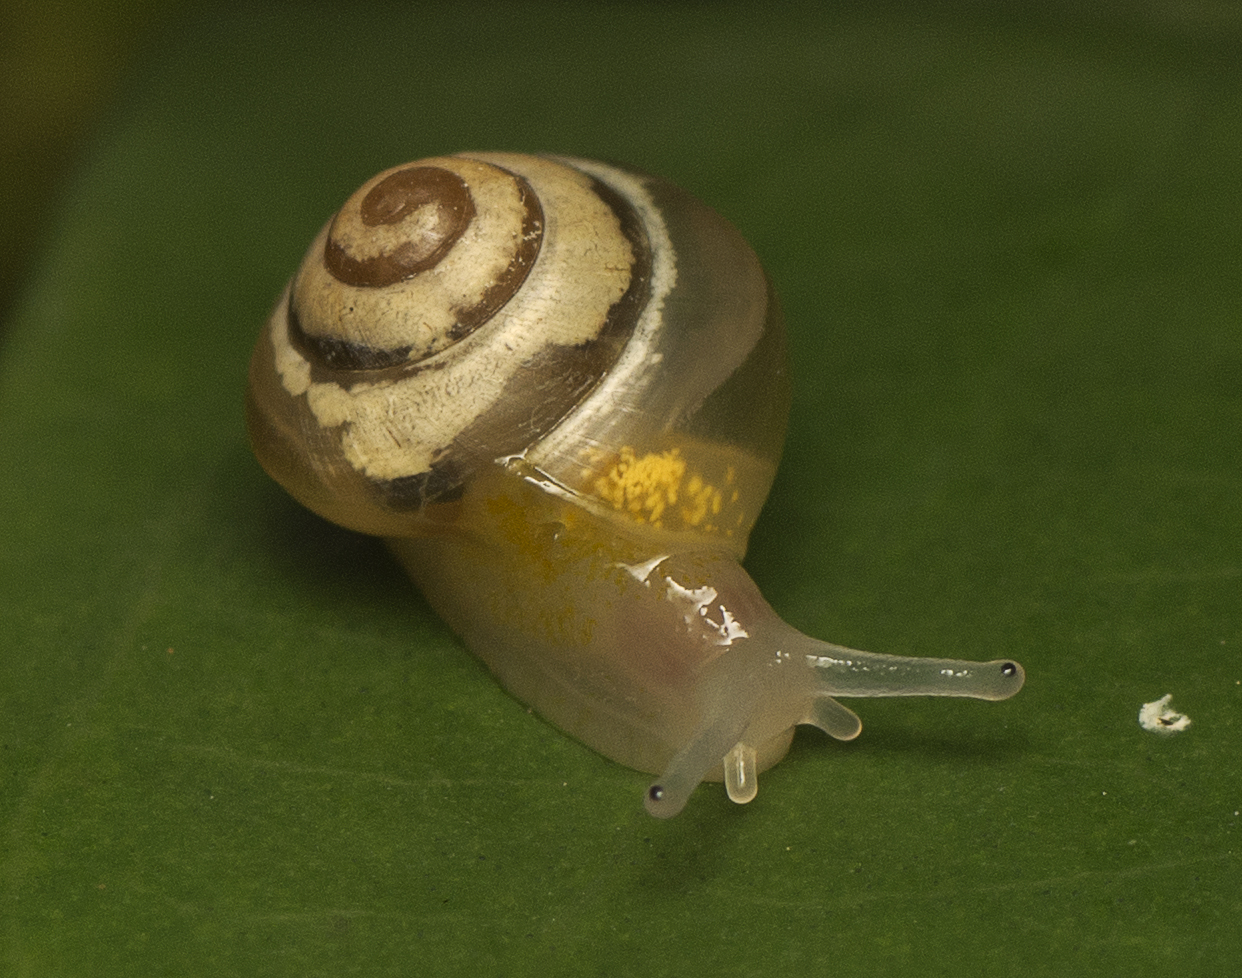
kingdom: Animalia
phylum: Mollusca
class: Gastropoda
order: Stylommatophora
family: Euconulidae
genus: Coneuplecta
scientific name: Coneuplecta pampini
